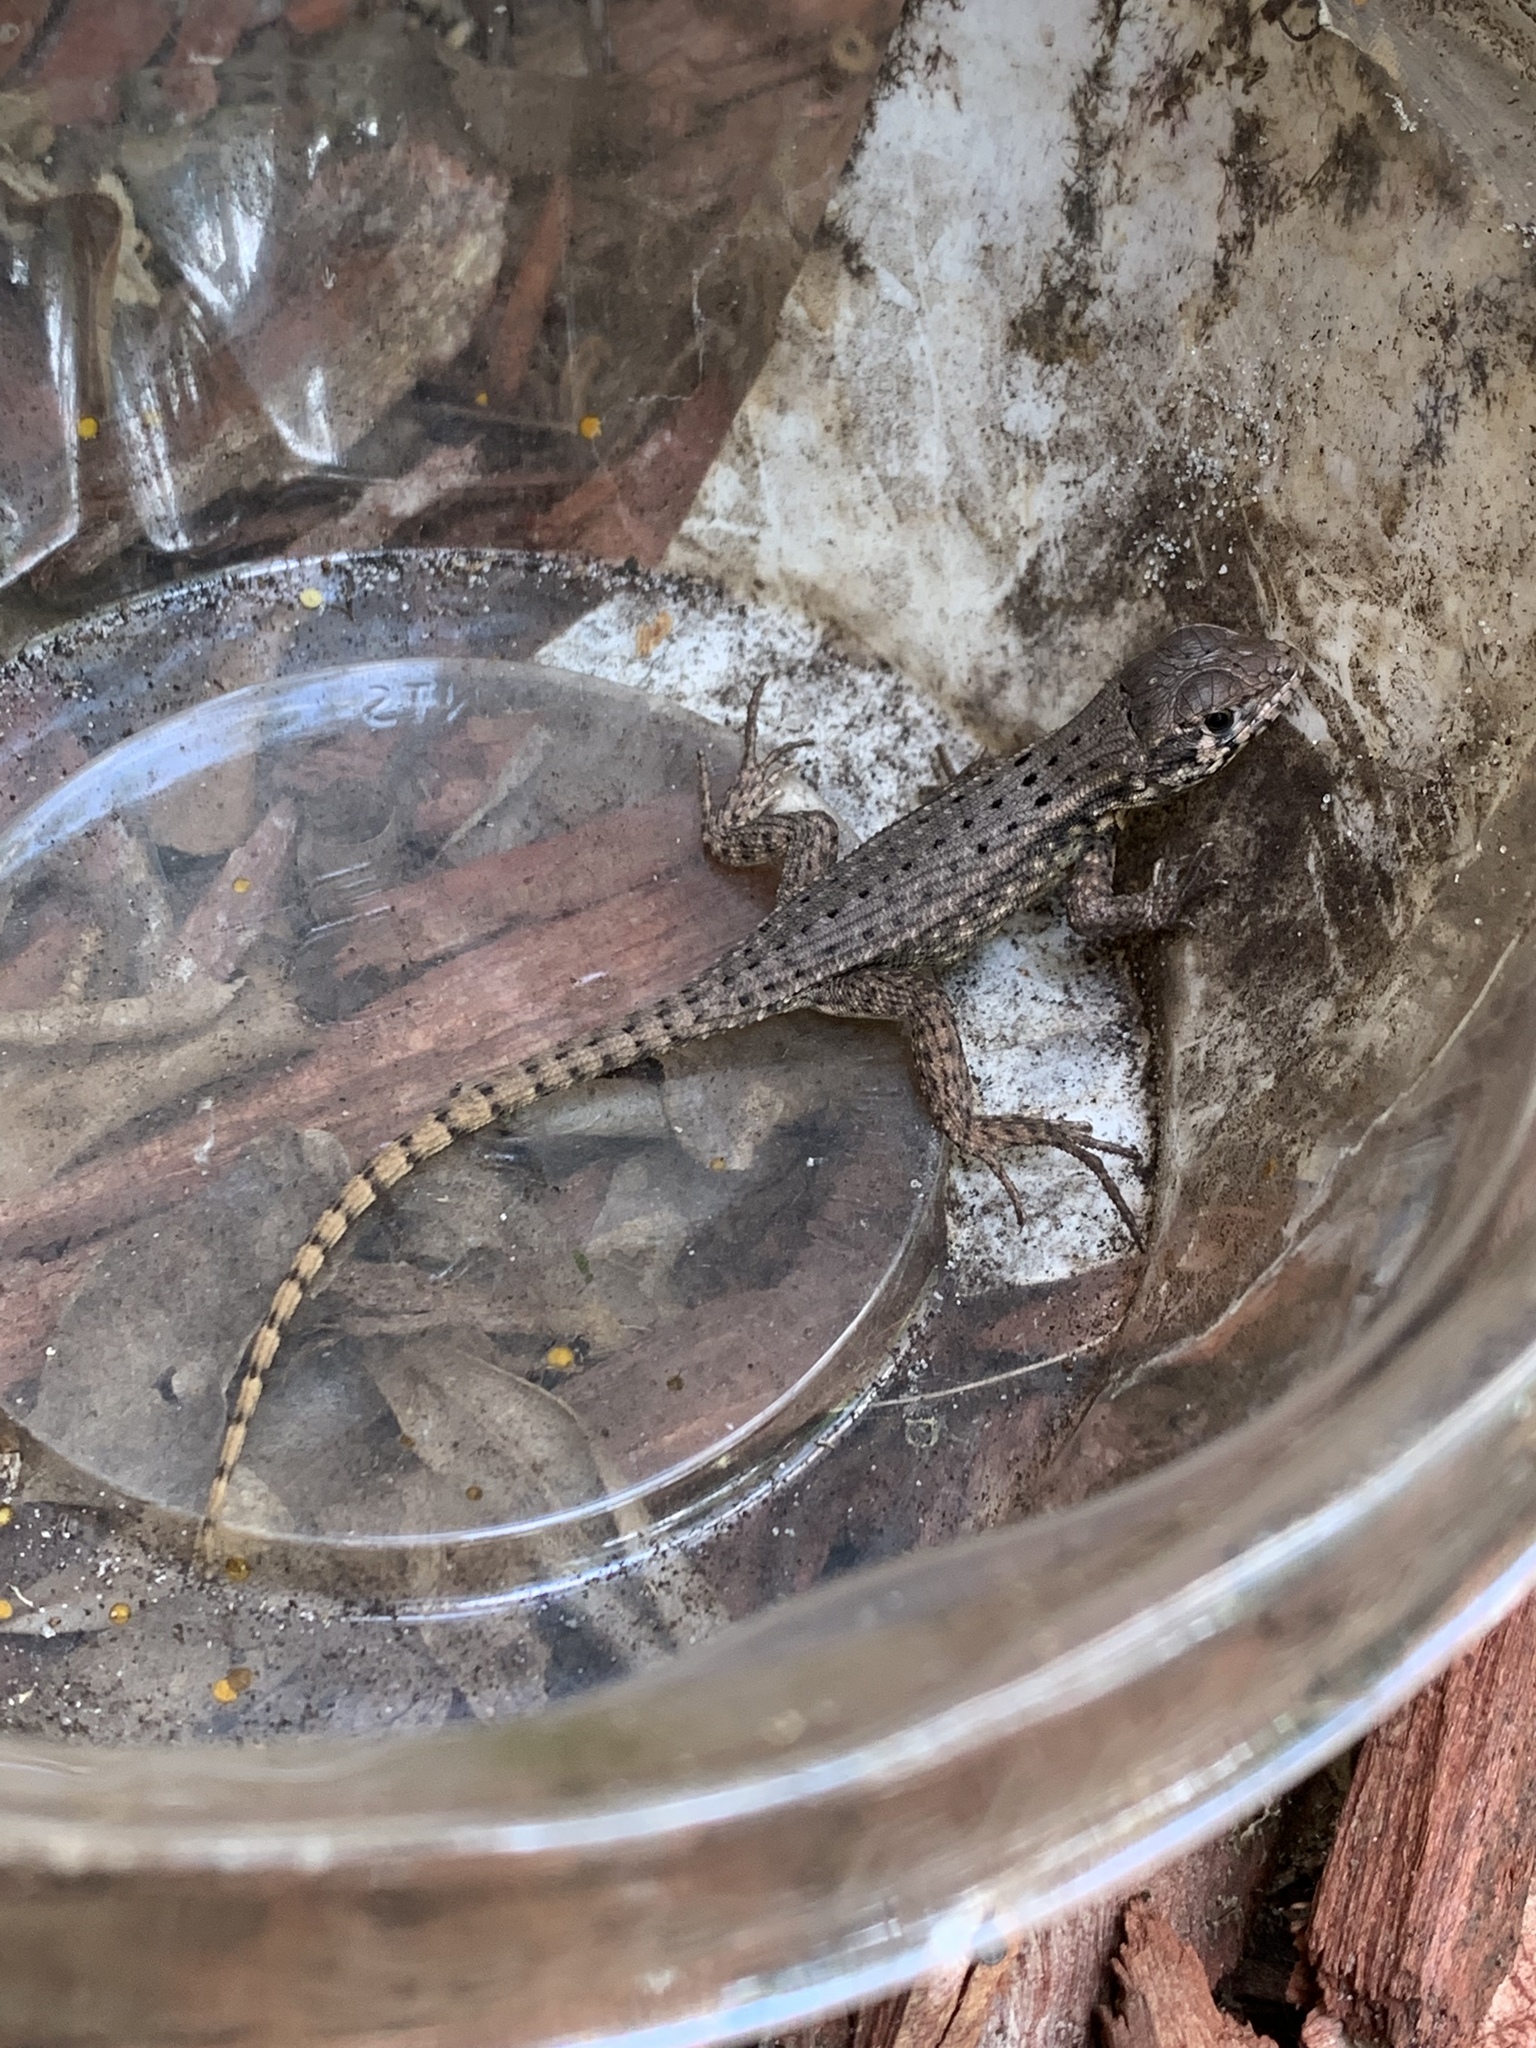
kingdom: Animalia
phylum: Chordata
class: Squamata
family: Leiocephalidae
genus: Leiocephalus
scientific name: Leiocephalus carinatus
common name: Northern curly-tailed lizard
